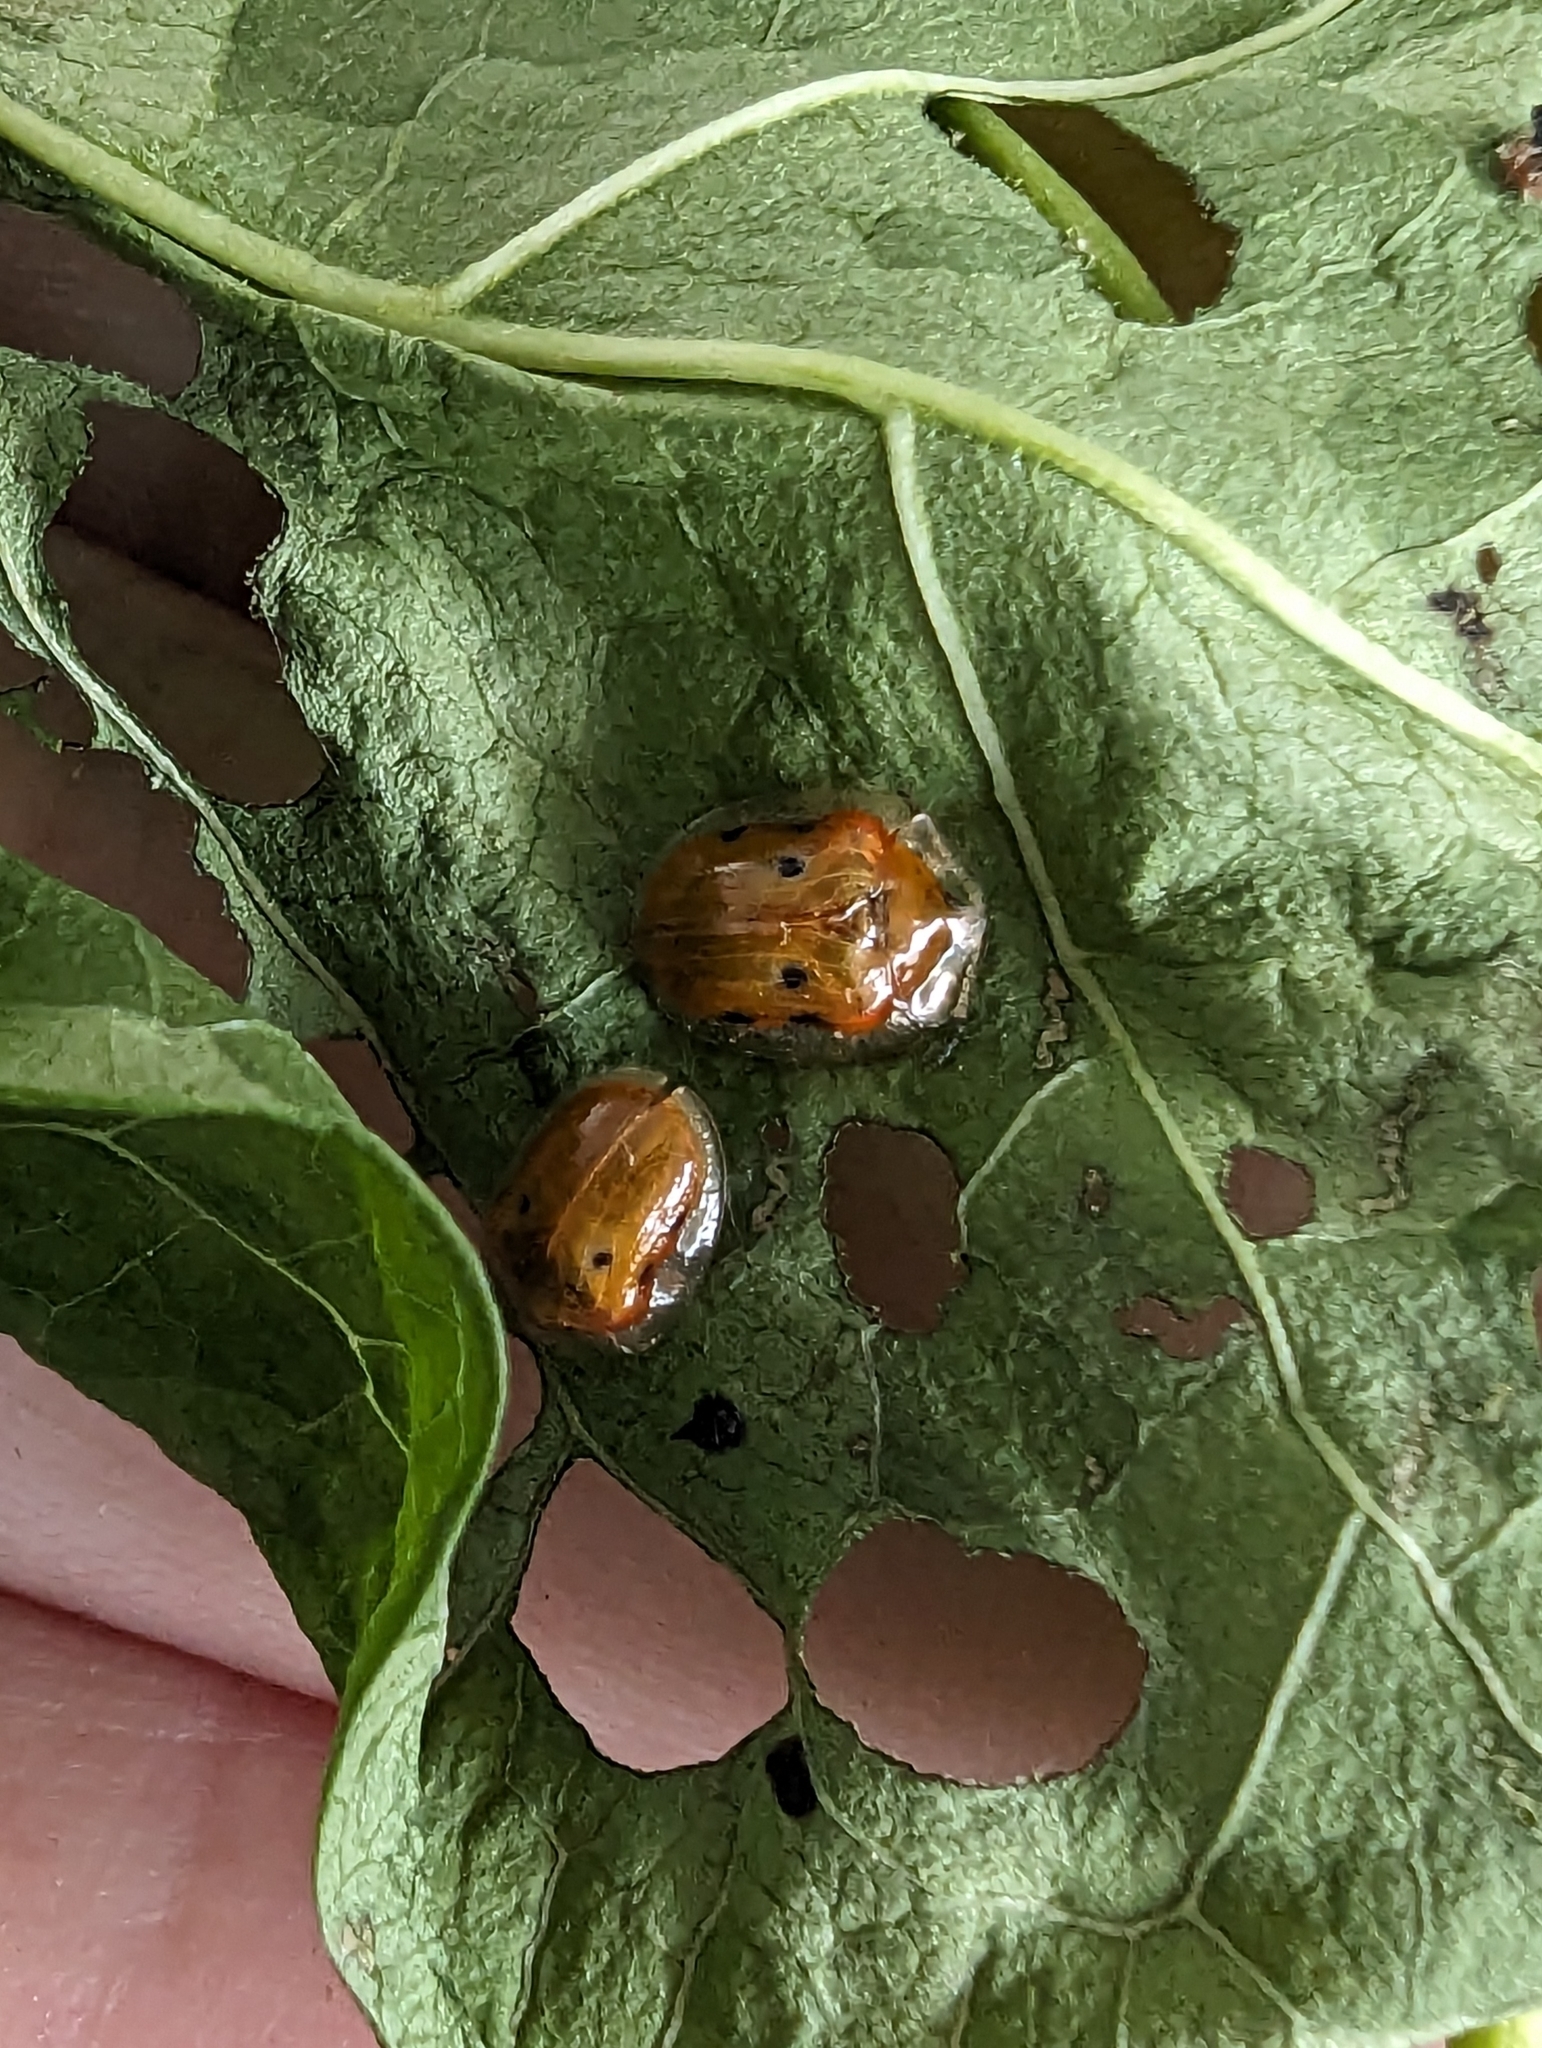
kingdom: Animalia
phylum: Arthropoda
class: Insecta
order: Coleoptera
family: Chrysomelidae
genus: Charidotella
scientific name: Charidotella sexpunctata
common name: Golden tortoise beetle
